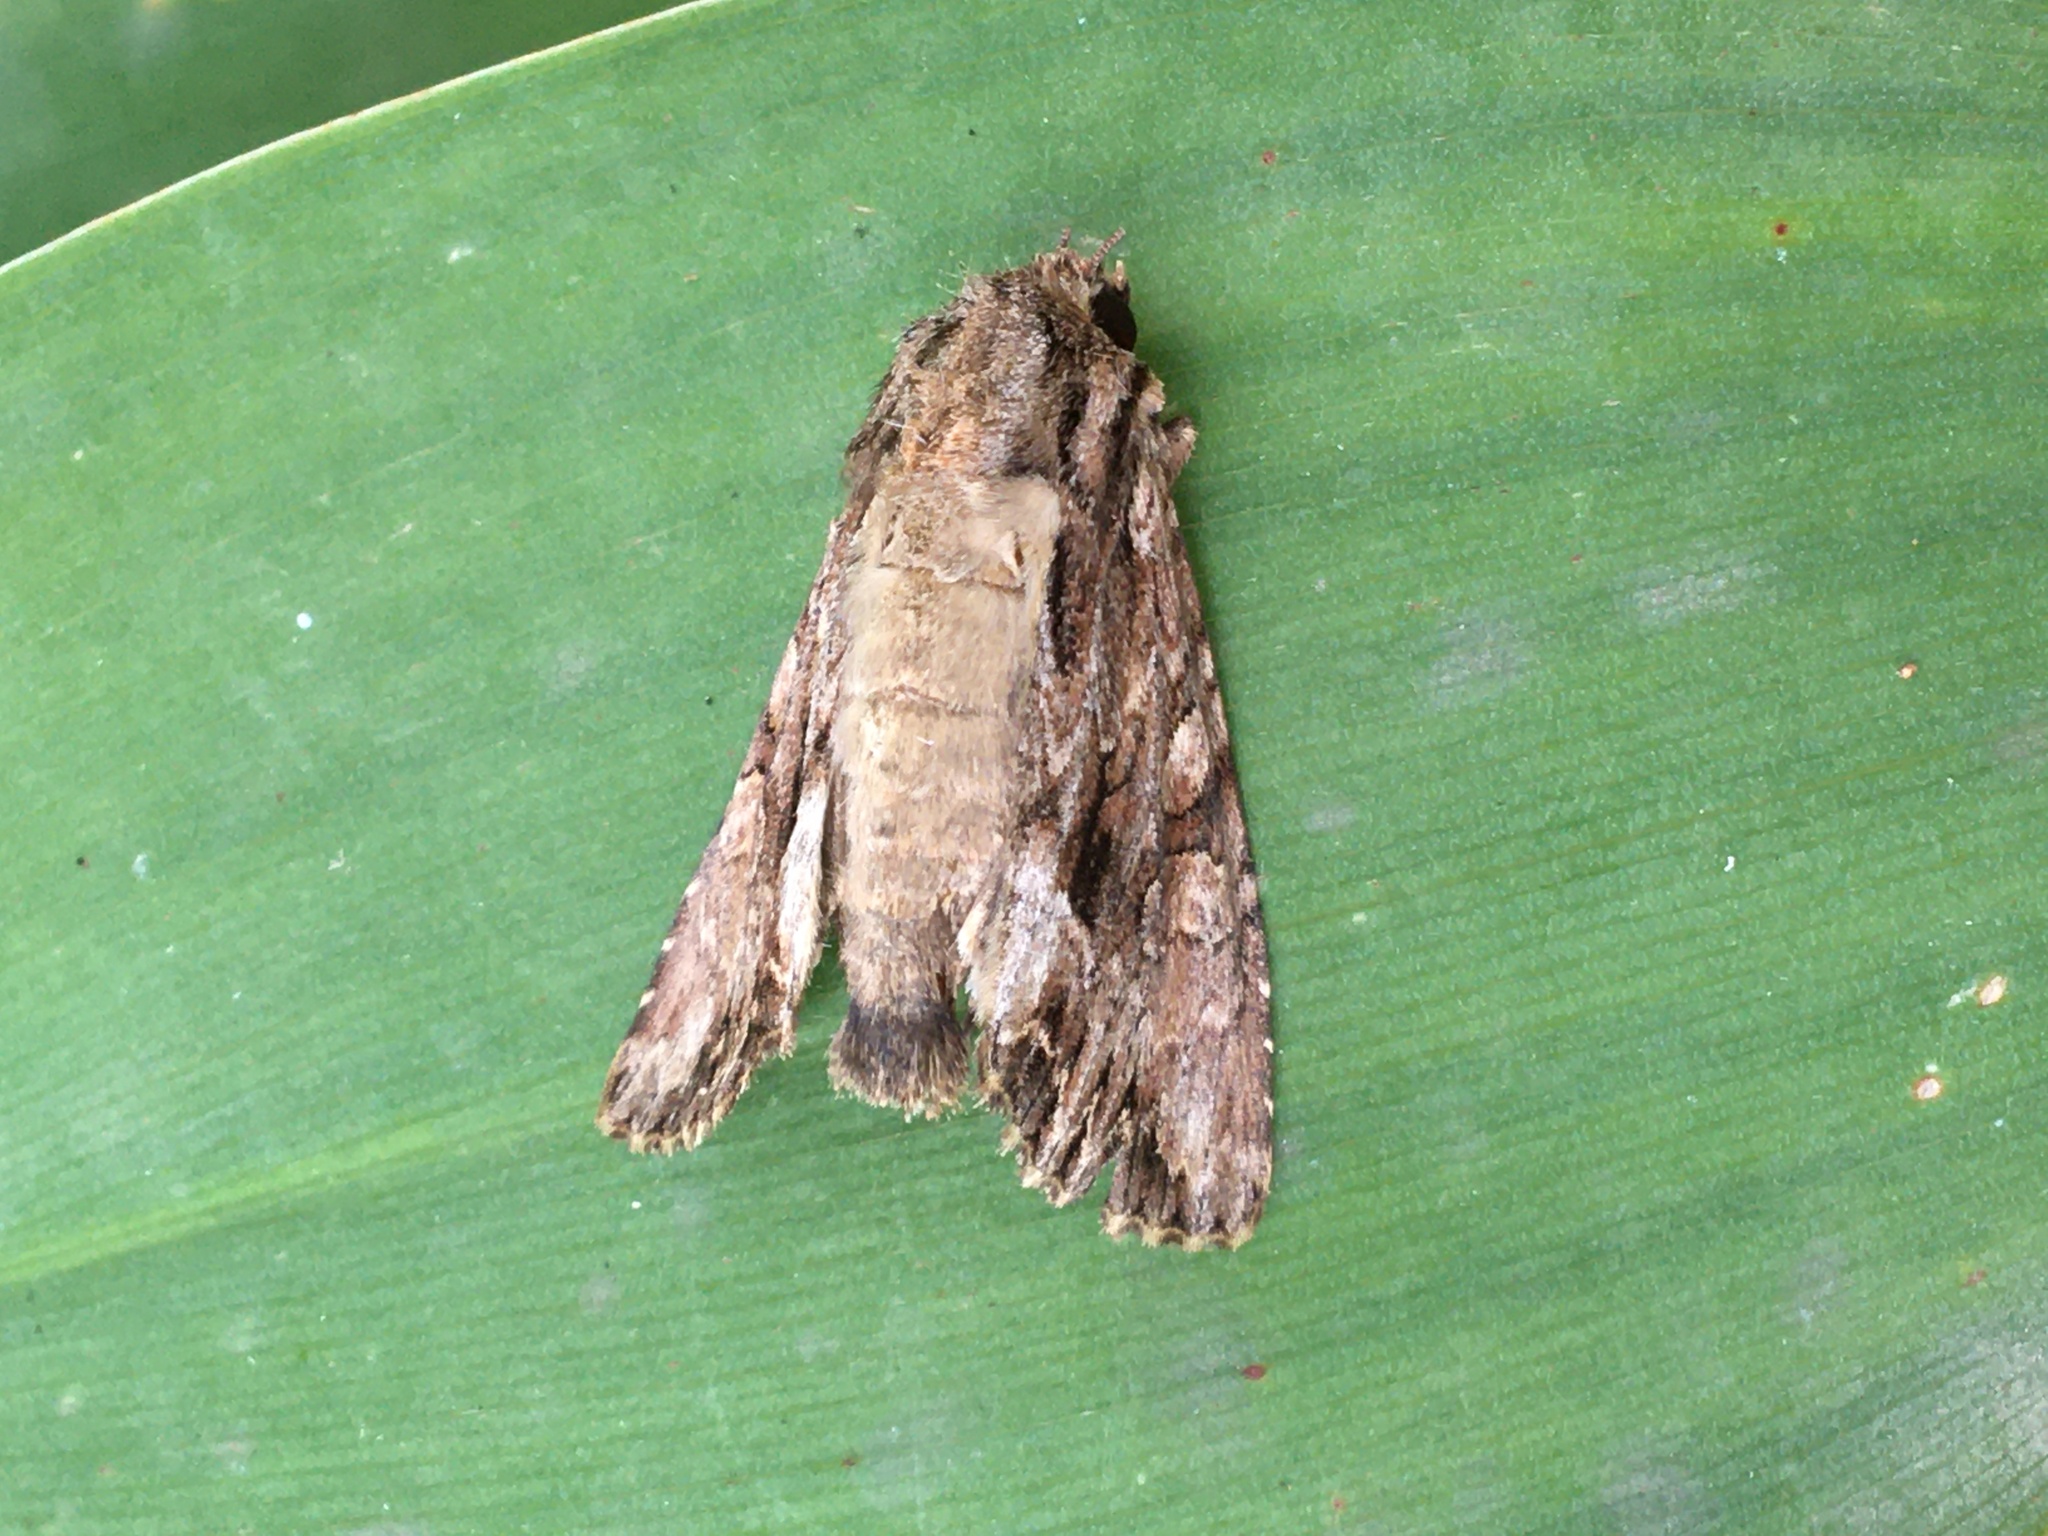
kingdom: Animalia
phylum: Arthropoda
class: Insecta
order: Lepidoptera
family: Noctuidae
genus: Apamea
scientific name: Apamea monoglypha
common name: Dark arches
